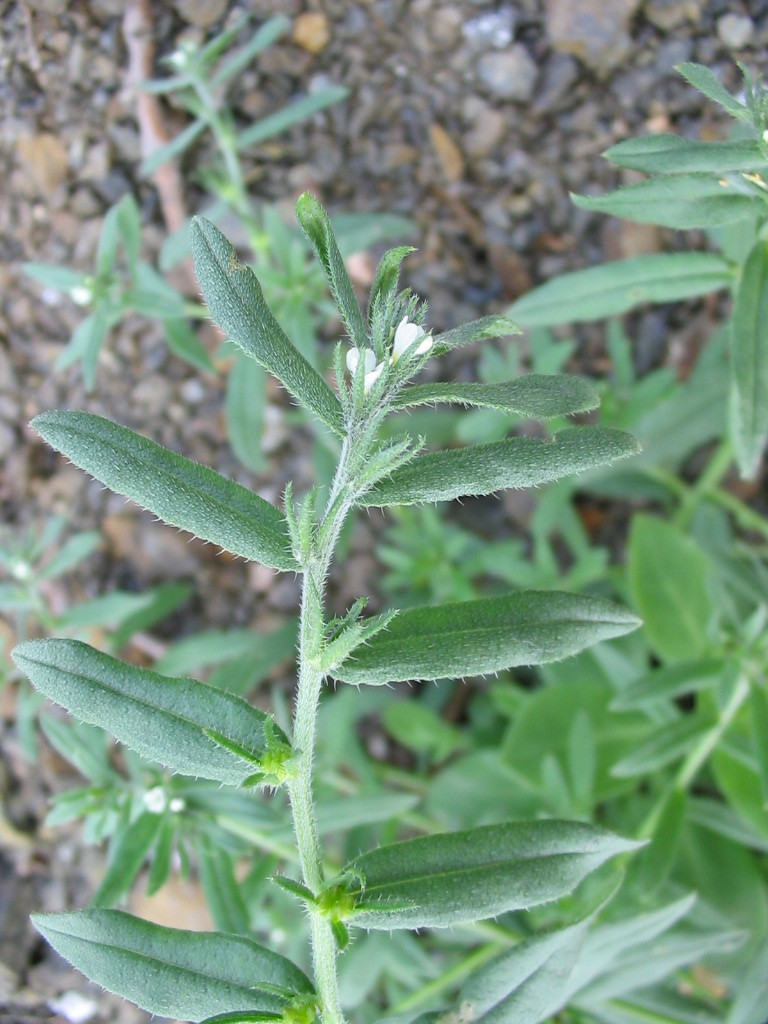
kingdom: Plantae
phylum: Tracheophyta
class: Magnoliopsida
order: Boraginales
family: Boraginaceae
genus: Buglossoides
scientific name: Buglossoides arvensis
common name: Corn gromwell
